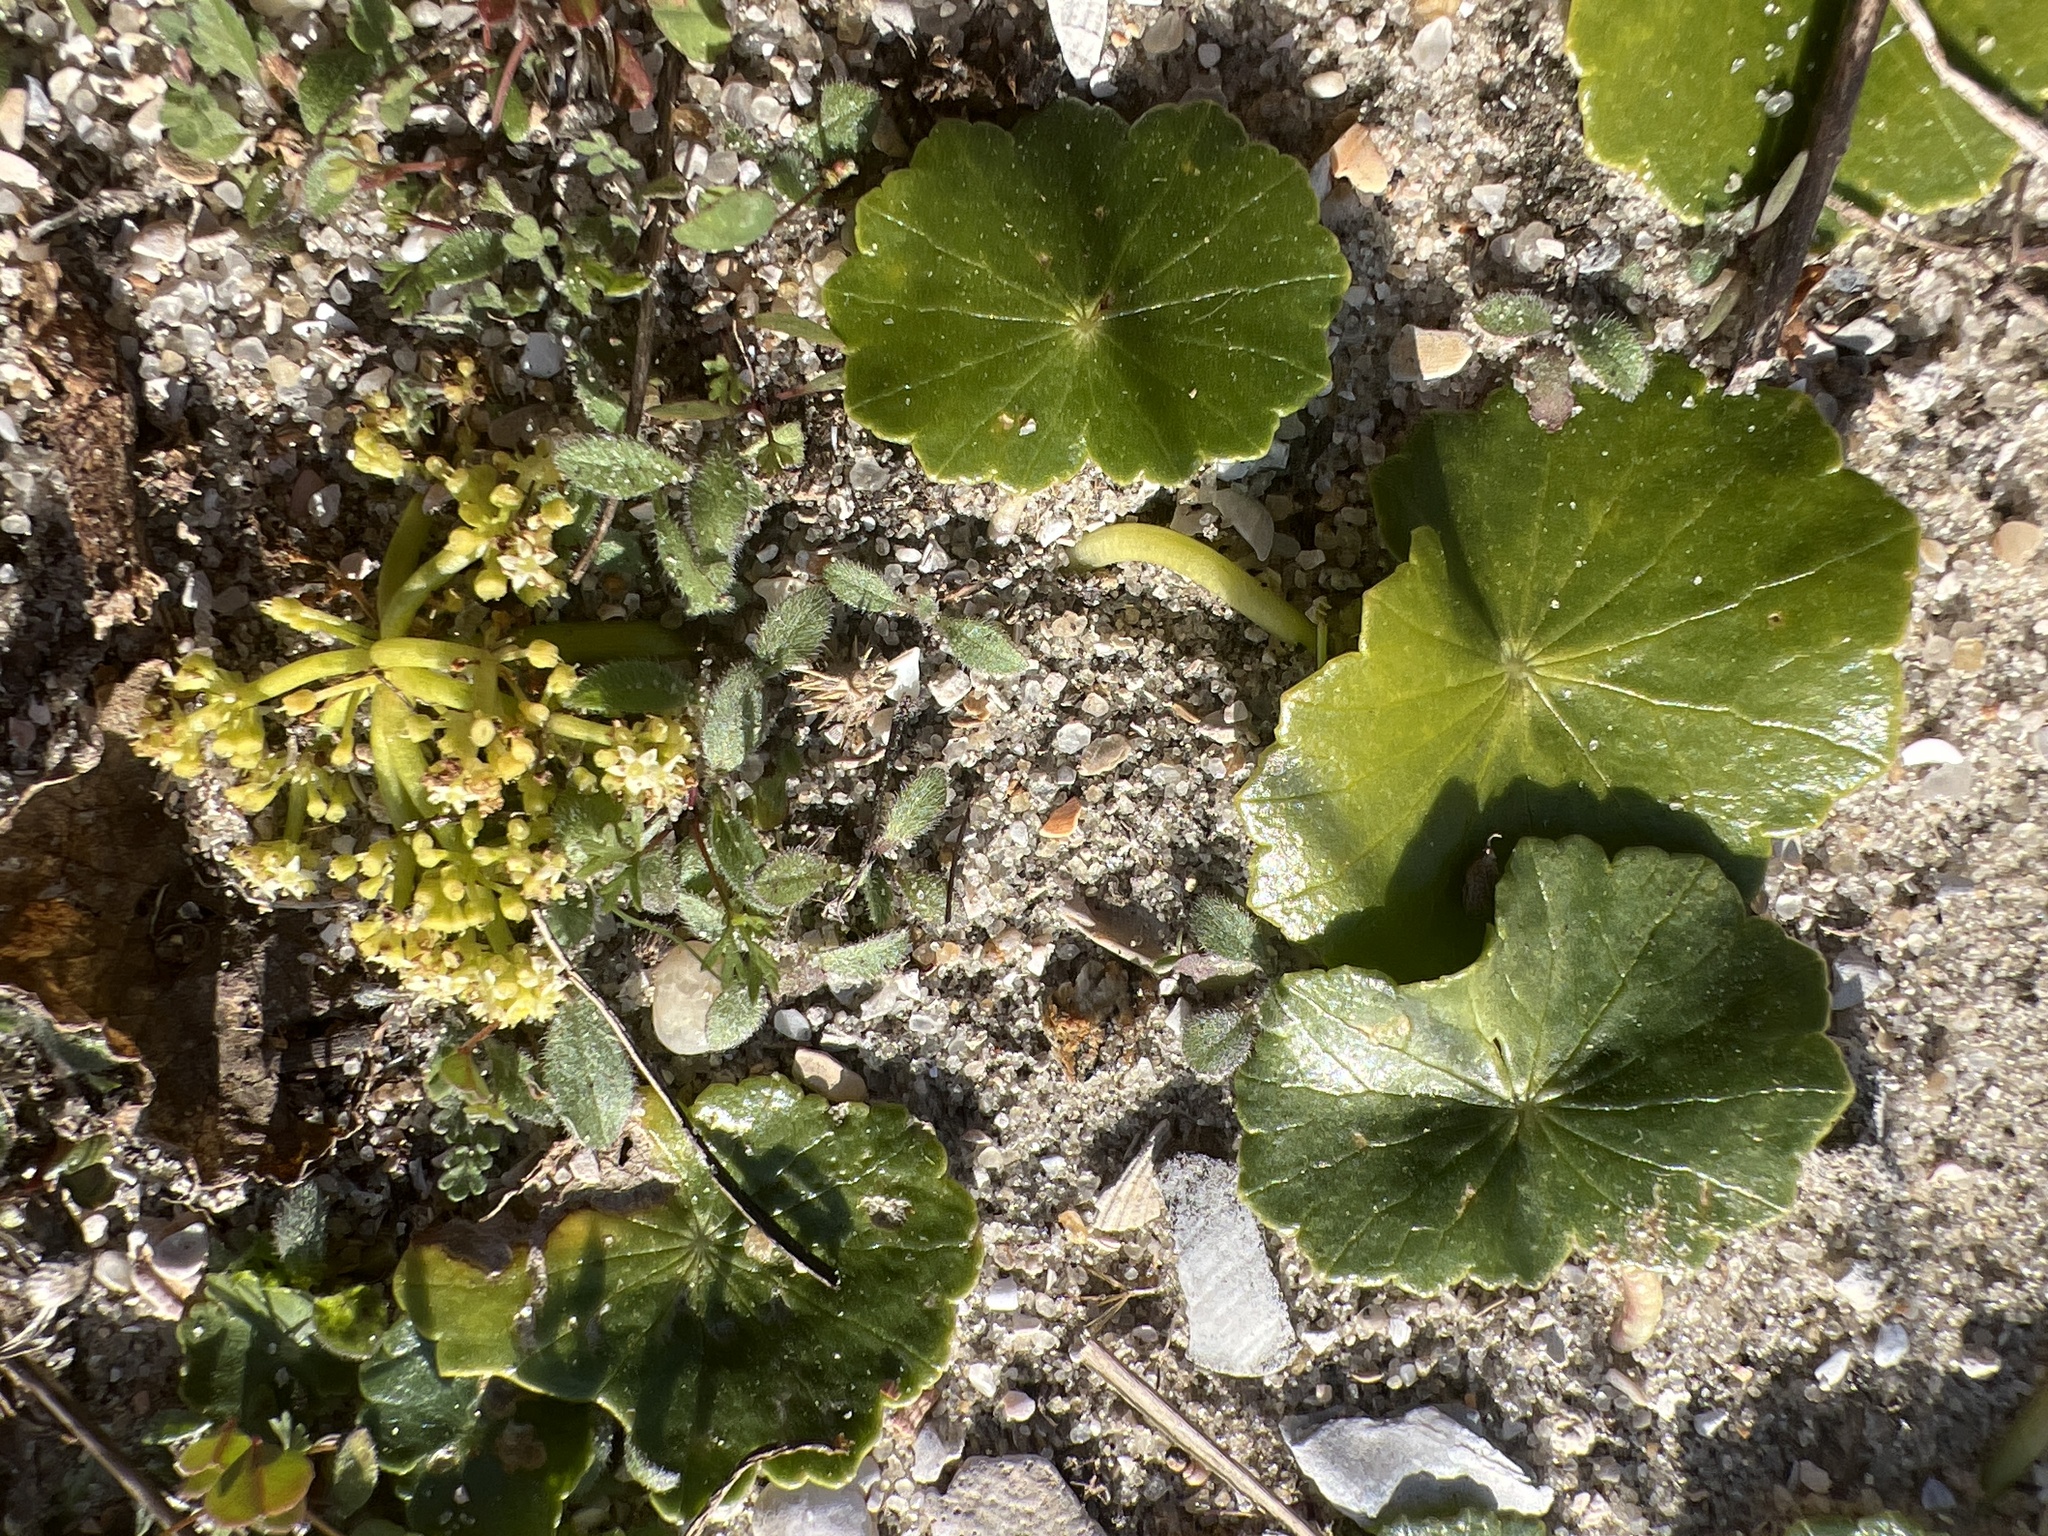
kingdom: Plantae
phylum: Tracheophyta
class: Magnoliopsida
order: Apiales
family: Araliaceae
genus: Hydrocotyle
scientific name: Hydrocotyle bonariensis
